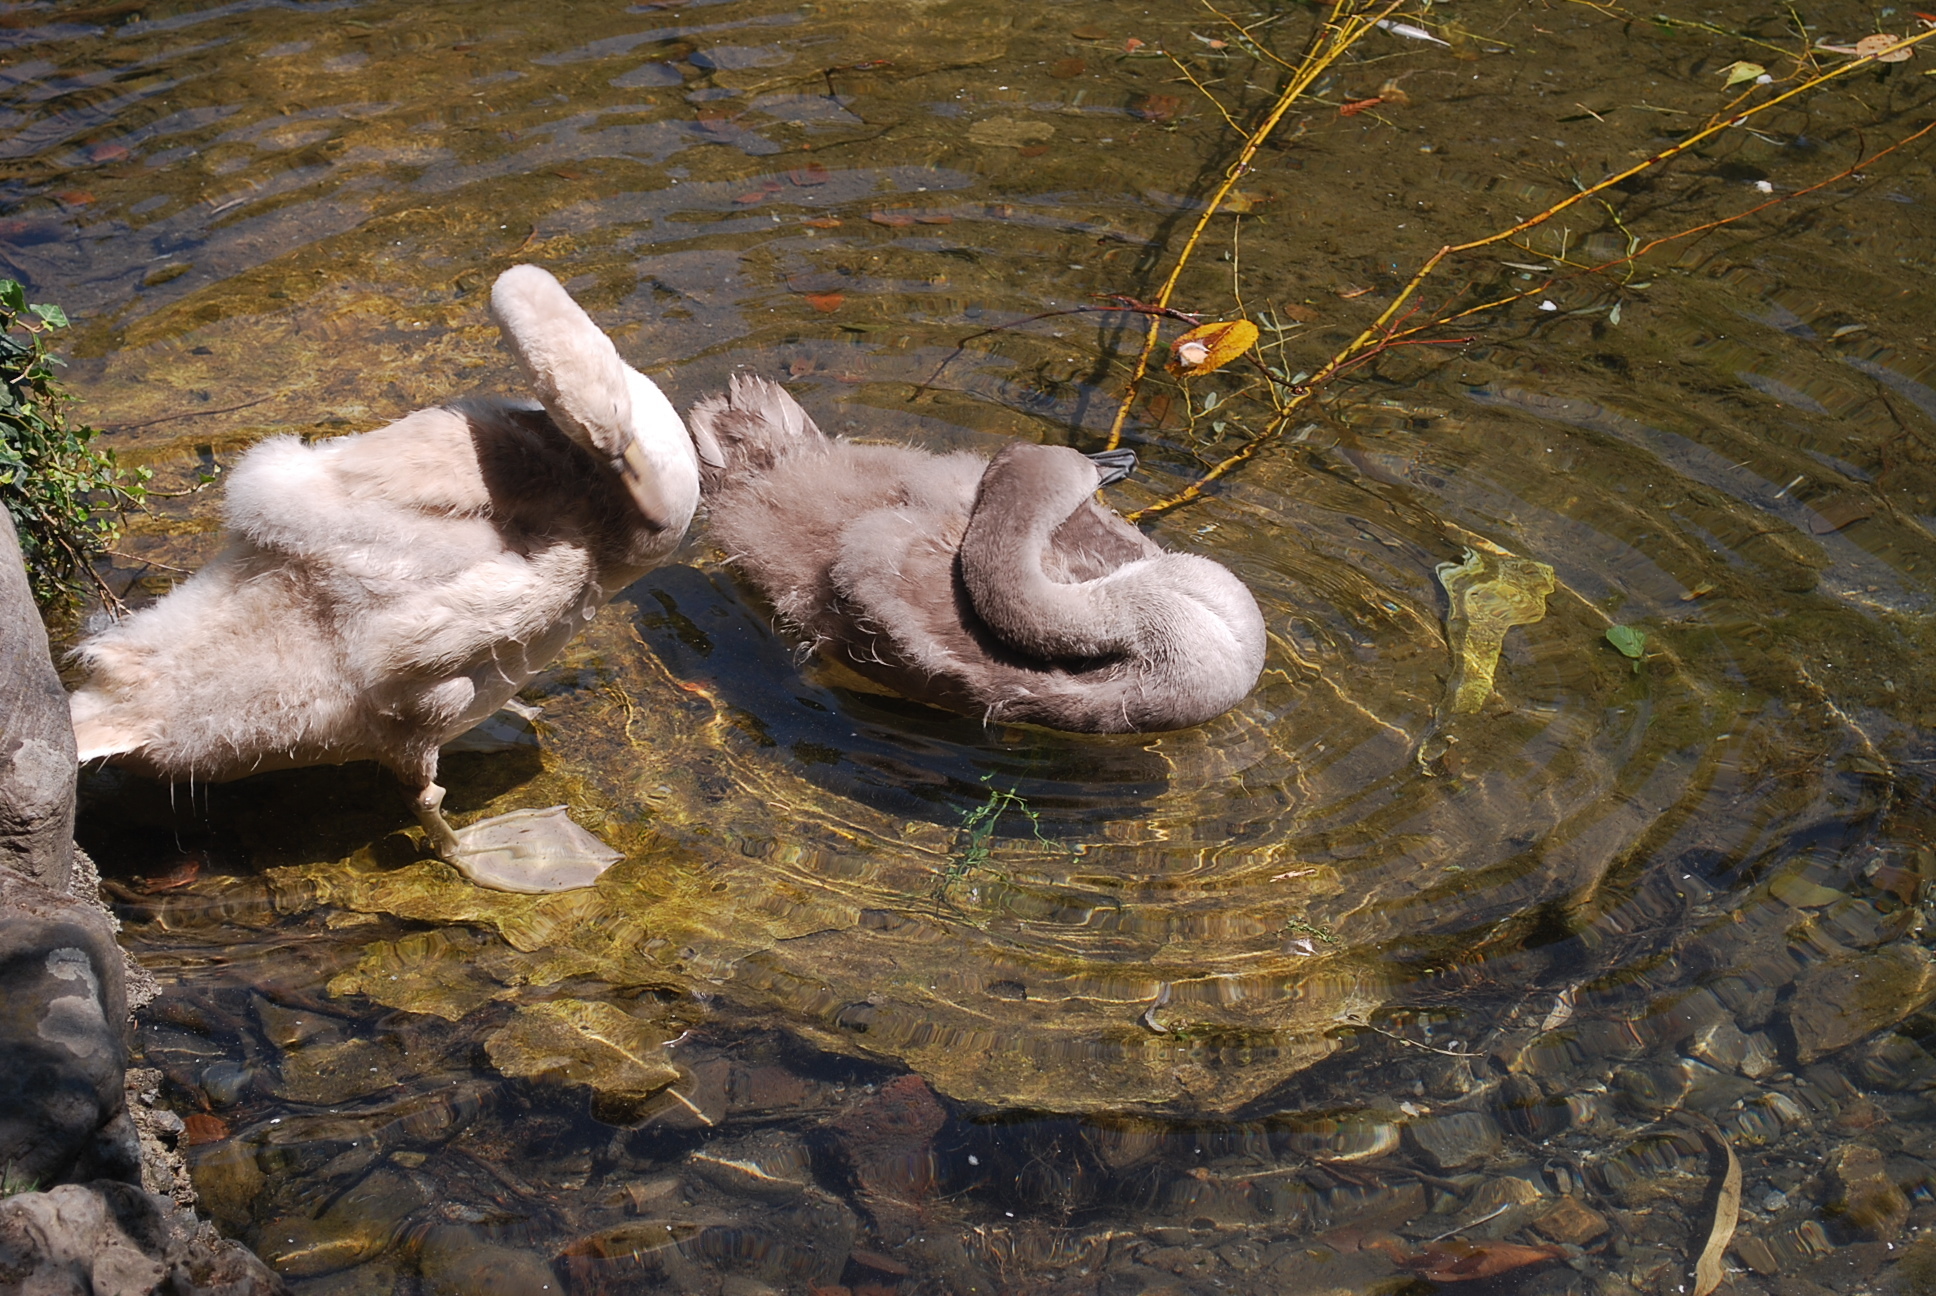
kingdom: Animalia
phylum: Chordata
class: Aves
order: Anseriformes
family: Anatidae
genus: Cygnus
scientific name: Cygnus olor
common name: Mute swan
